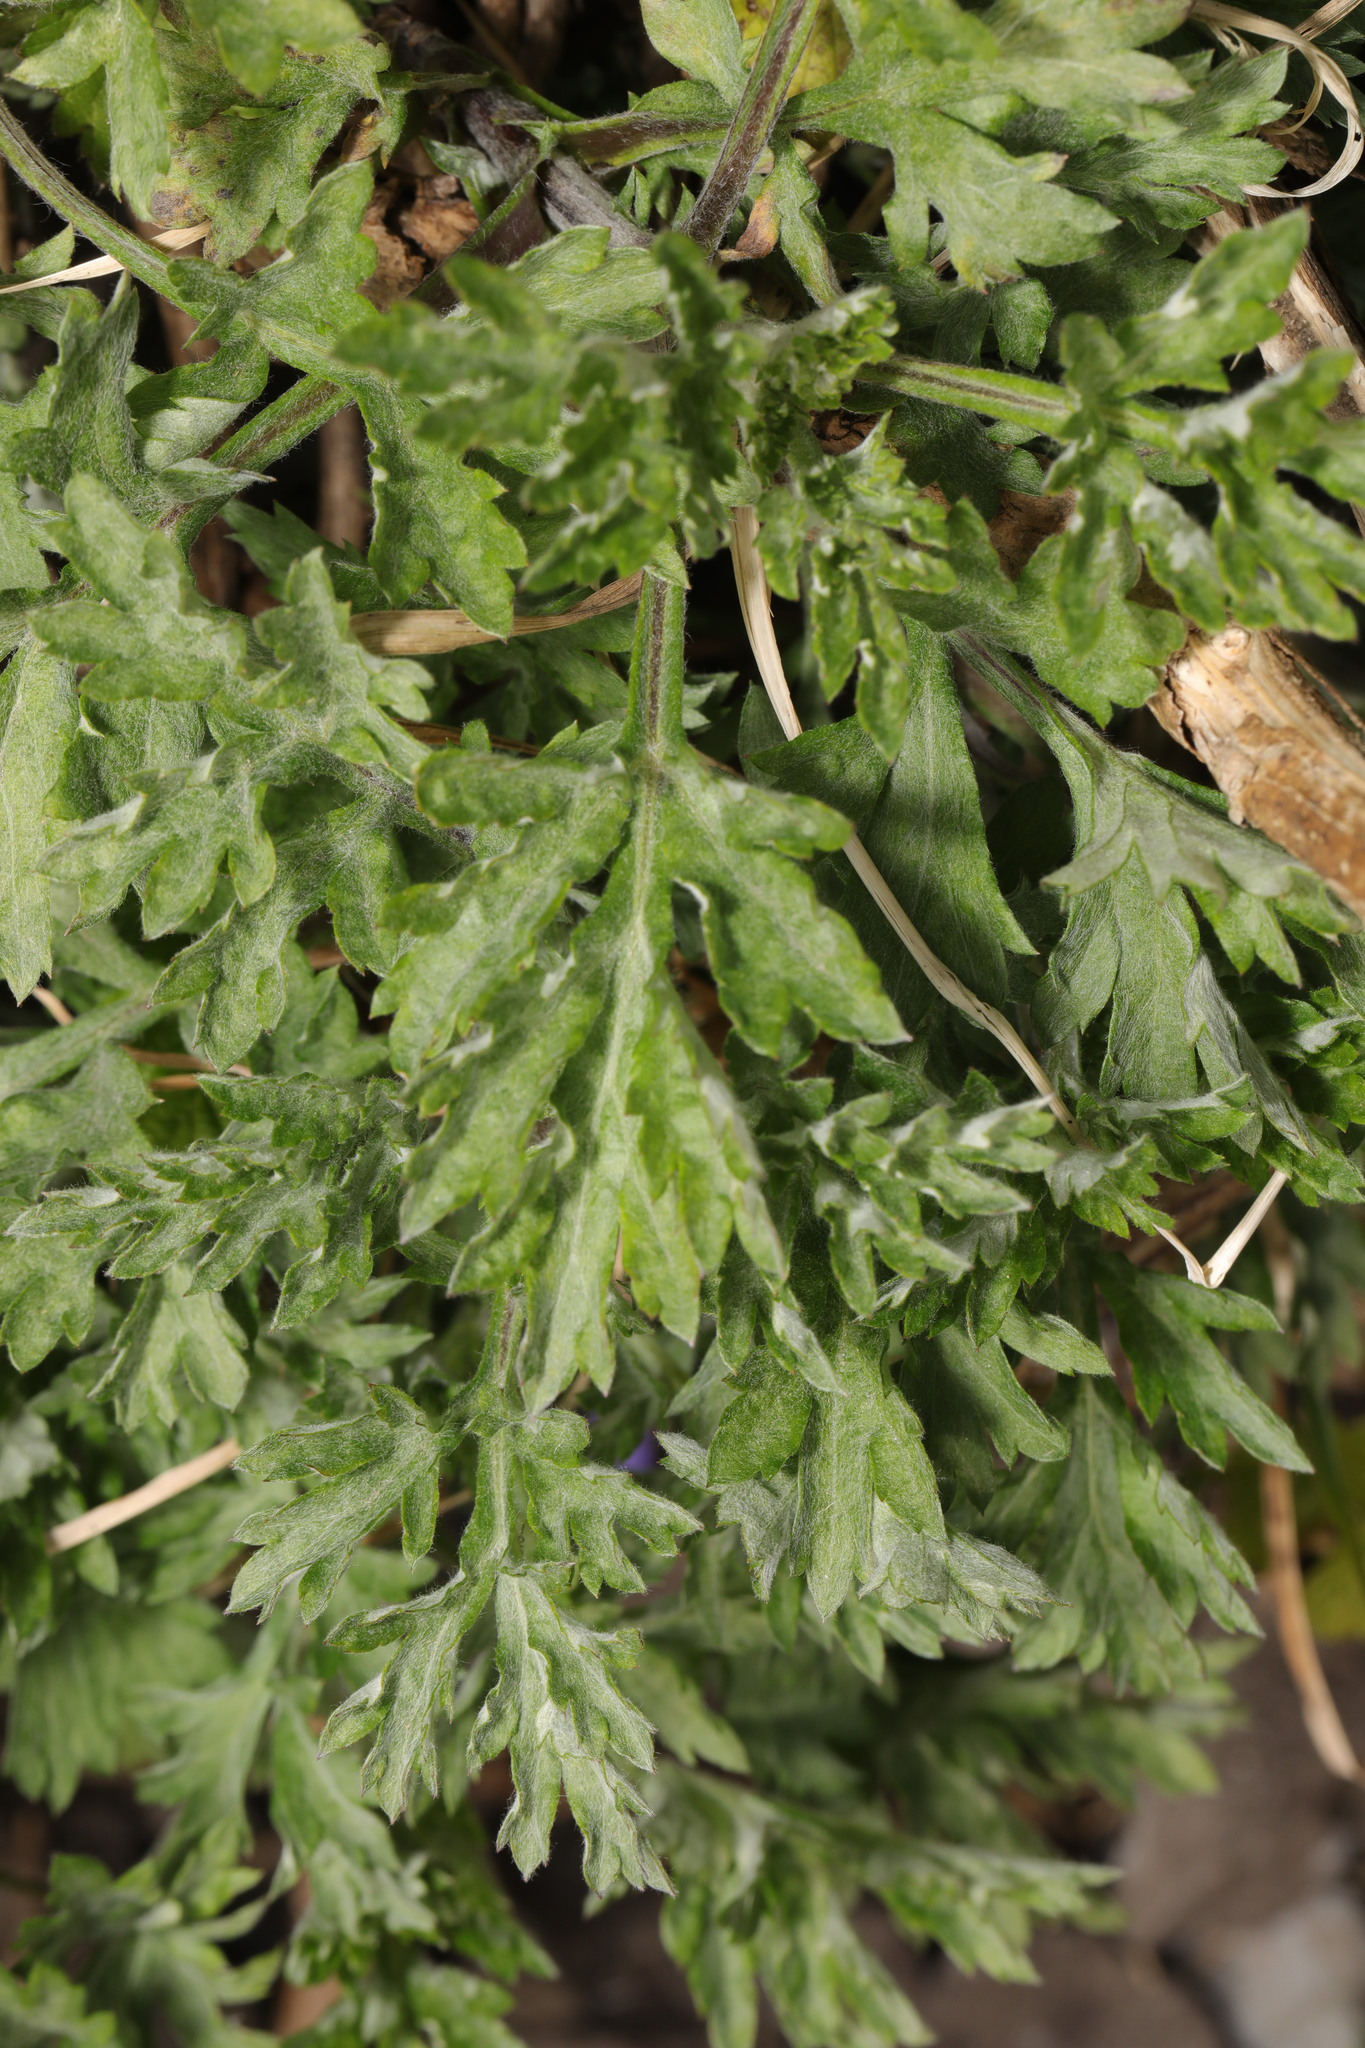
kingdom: Plantae
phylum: Tracheophyta
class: Magnoliopsida
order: Asterales
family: Asteraceae
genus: Artemisia
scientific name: Artemisia vulgaris
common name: Mugwort
